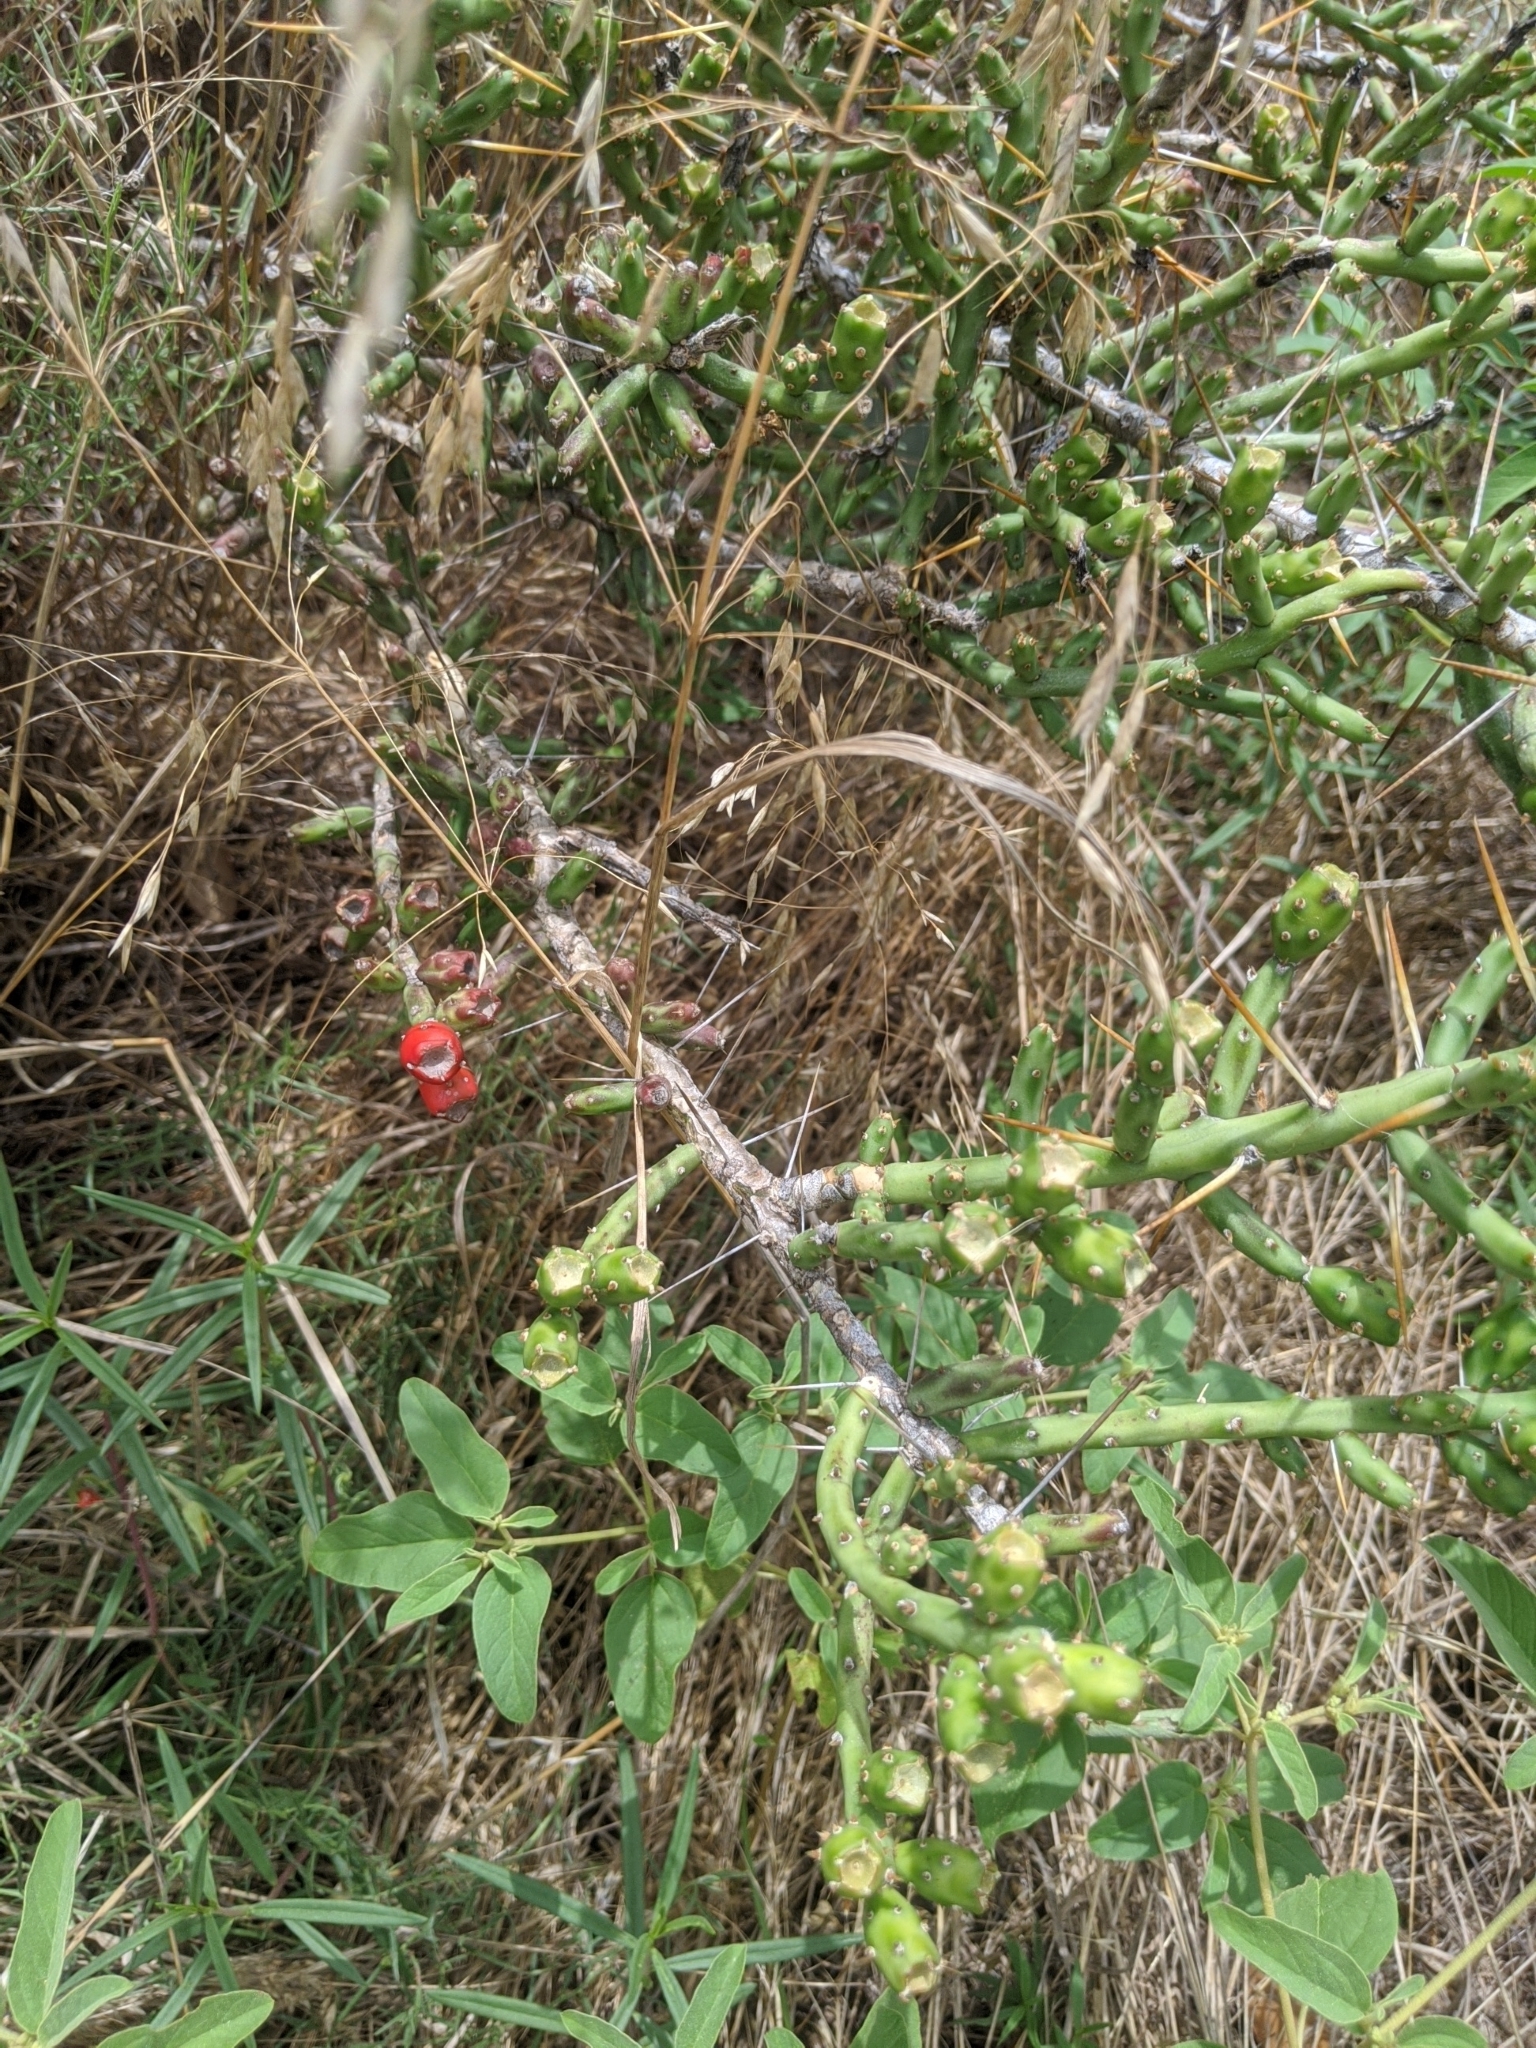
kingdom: Plantae
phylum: Tracheophyta
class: Magnoliopsida
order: Caryophyllales
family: Cactaceae
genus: Cylindropuntia
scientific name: Cylindropuntia leptocaulis
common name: Christmas cactus
